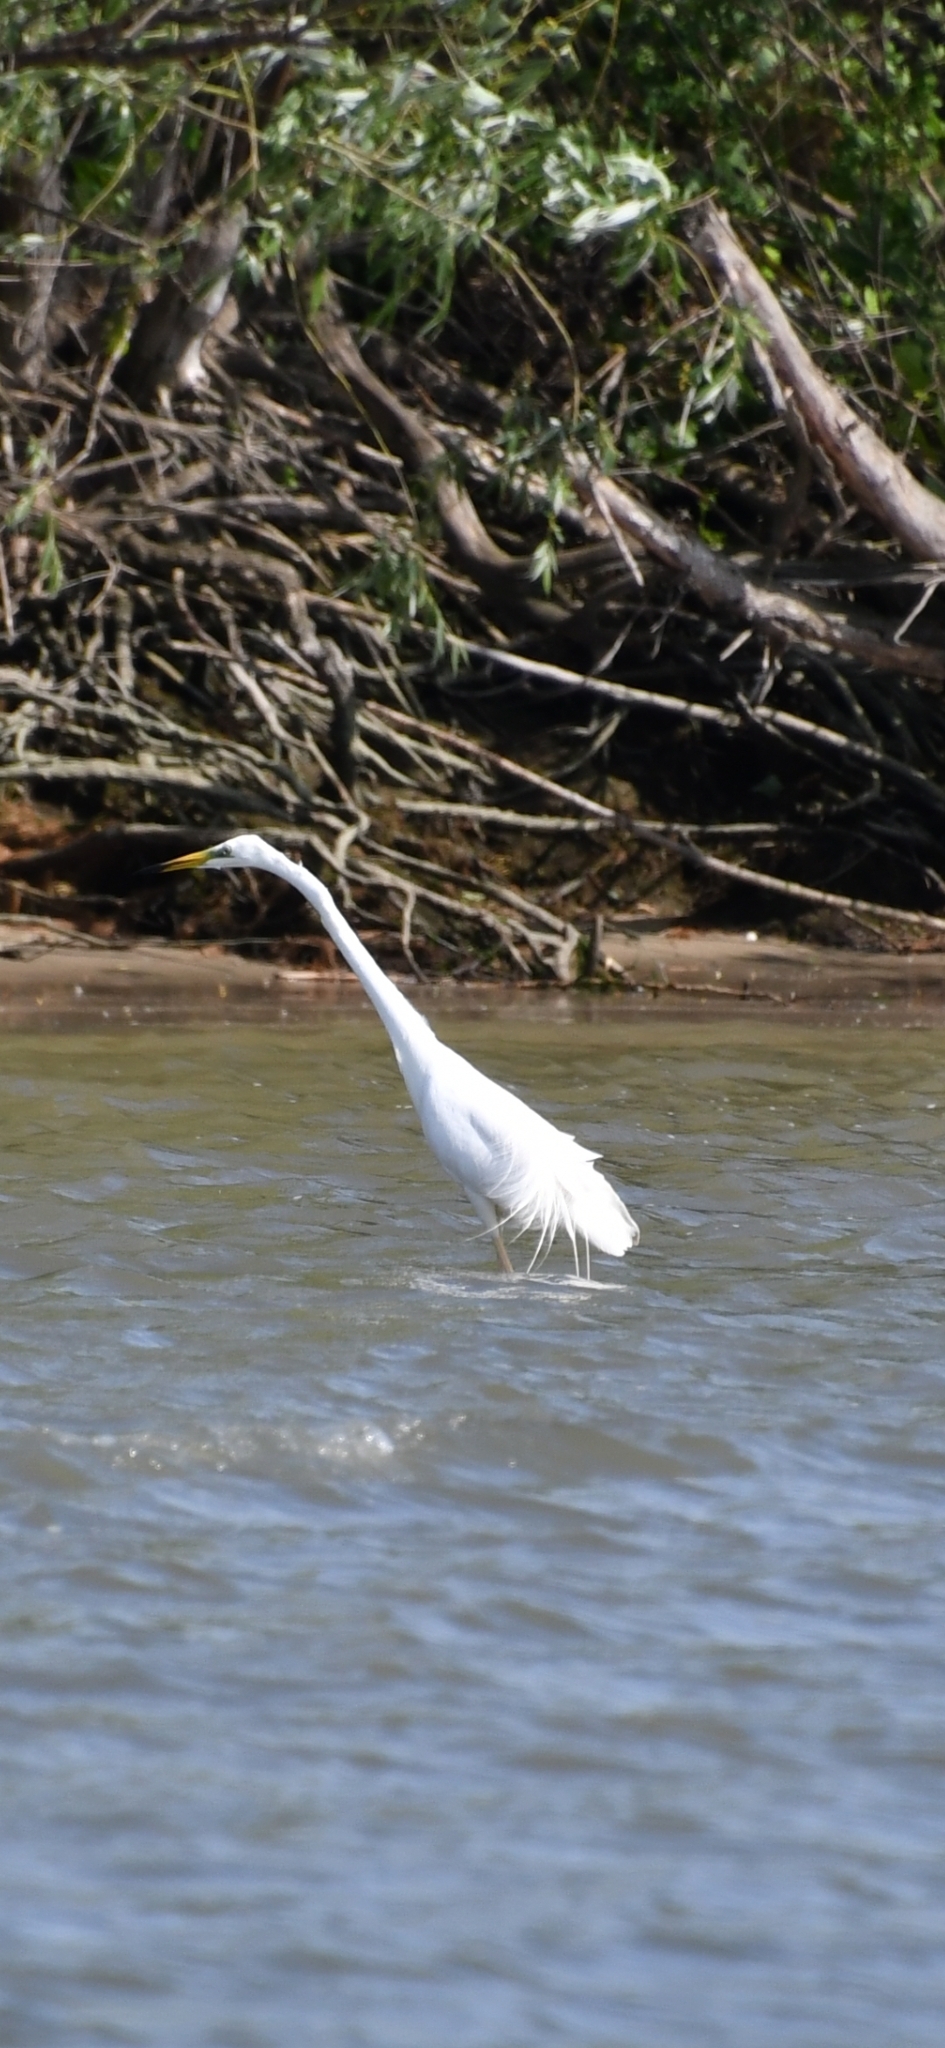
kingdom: Animalia
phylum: Chordata
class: Aves
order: Pelecaniformes
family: Ardeidae
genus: Ardea
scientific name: Ardea alba
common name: Great egret
